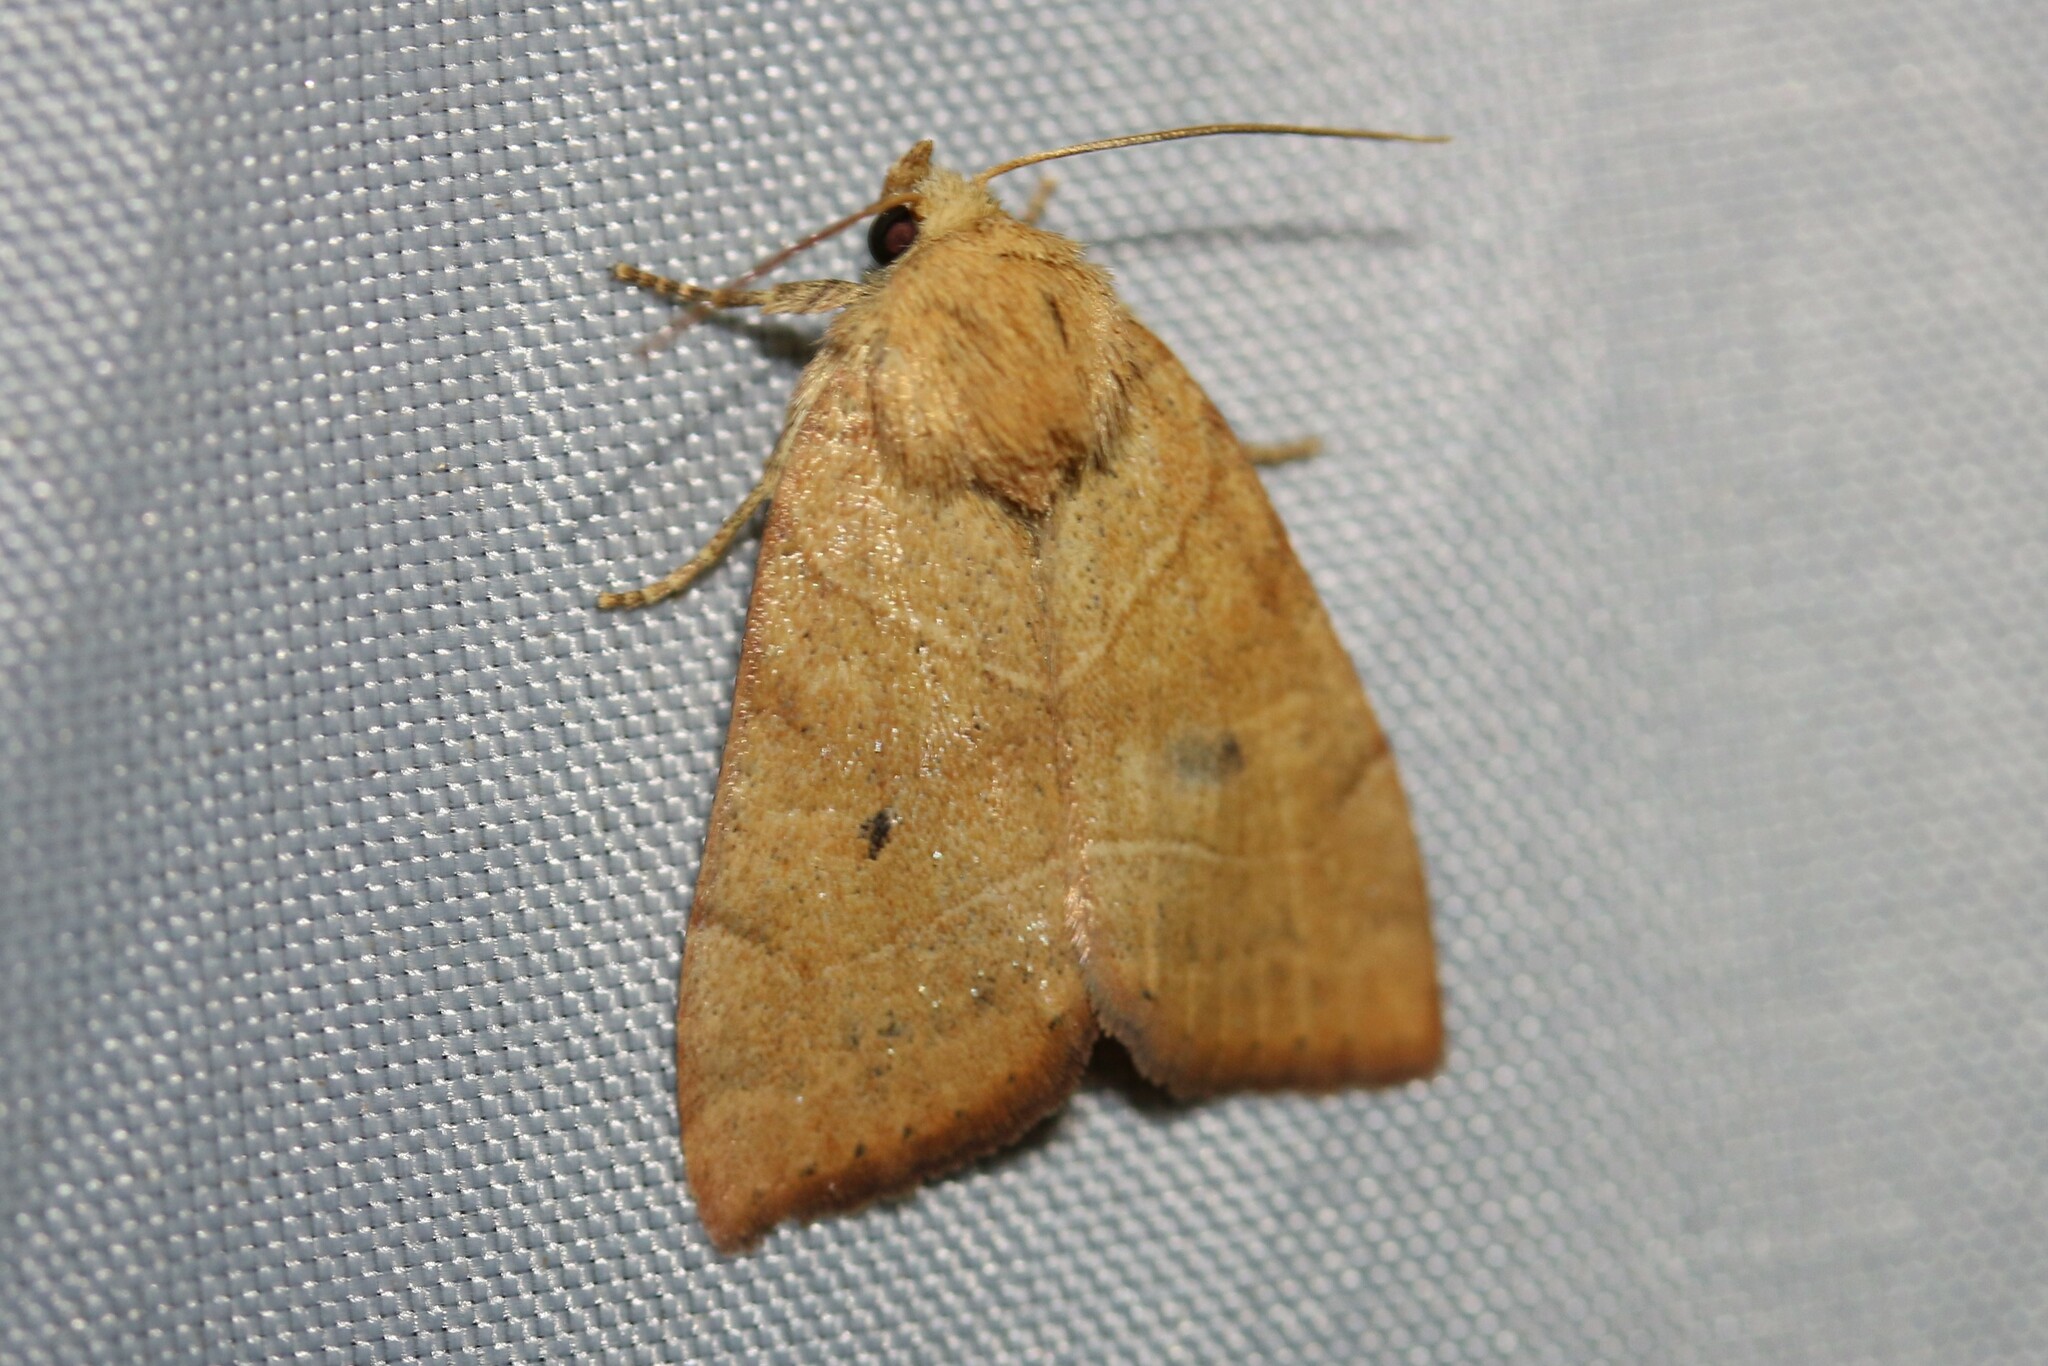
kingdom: Animalia
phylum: Arthropoda
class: Insecta
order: Lepidoptera
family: Noctuidae
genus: Cosmia
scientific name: Cosmia trapezina
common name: Dun-bar
